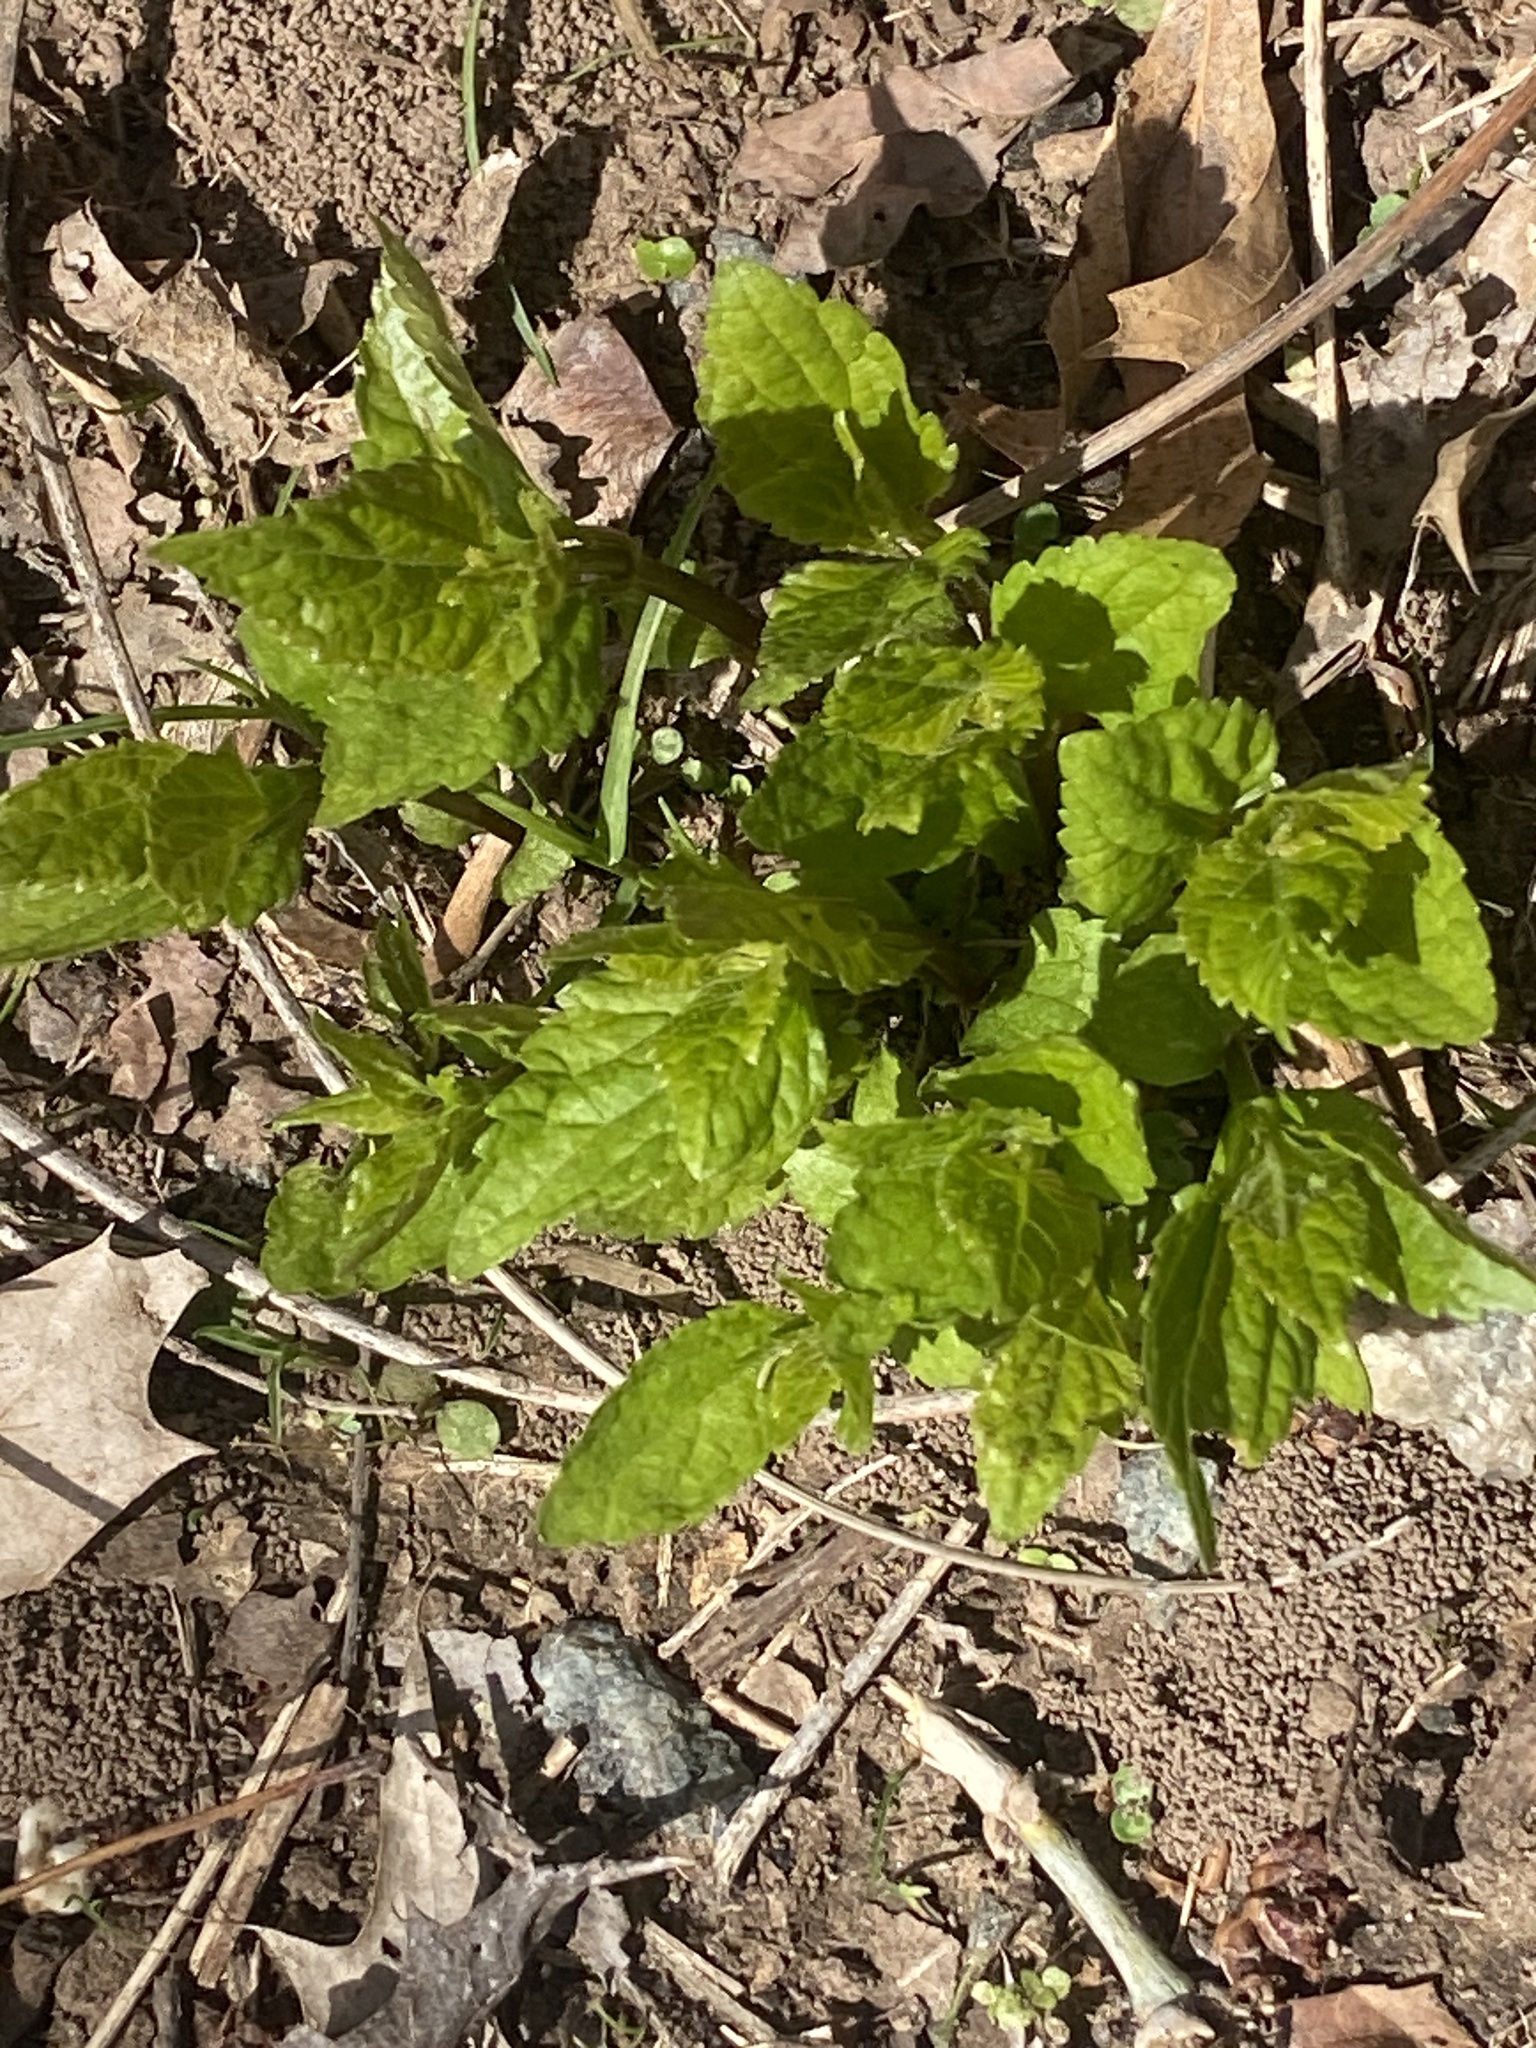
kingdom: Plantae
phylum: Tracheophyta
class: Magnoliopsida
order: Asterales
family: Asteraceae
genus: Ageratina
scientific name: Ageratina altissima
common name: White snakeroot
